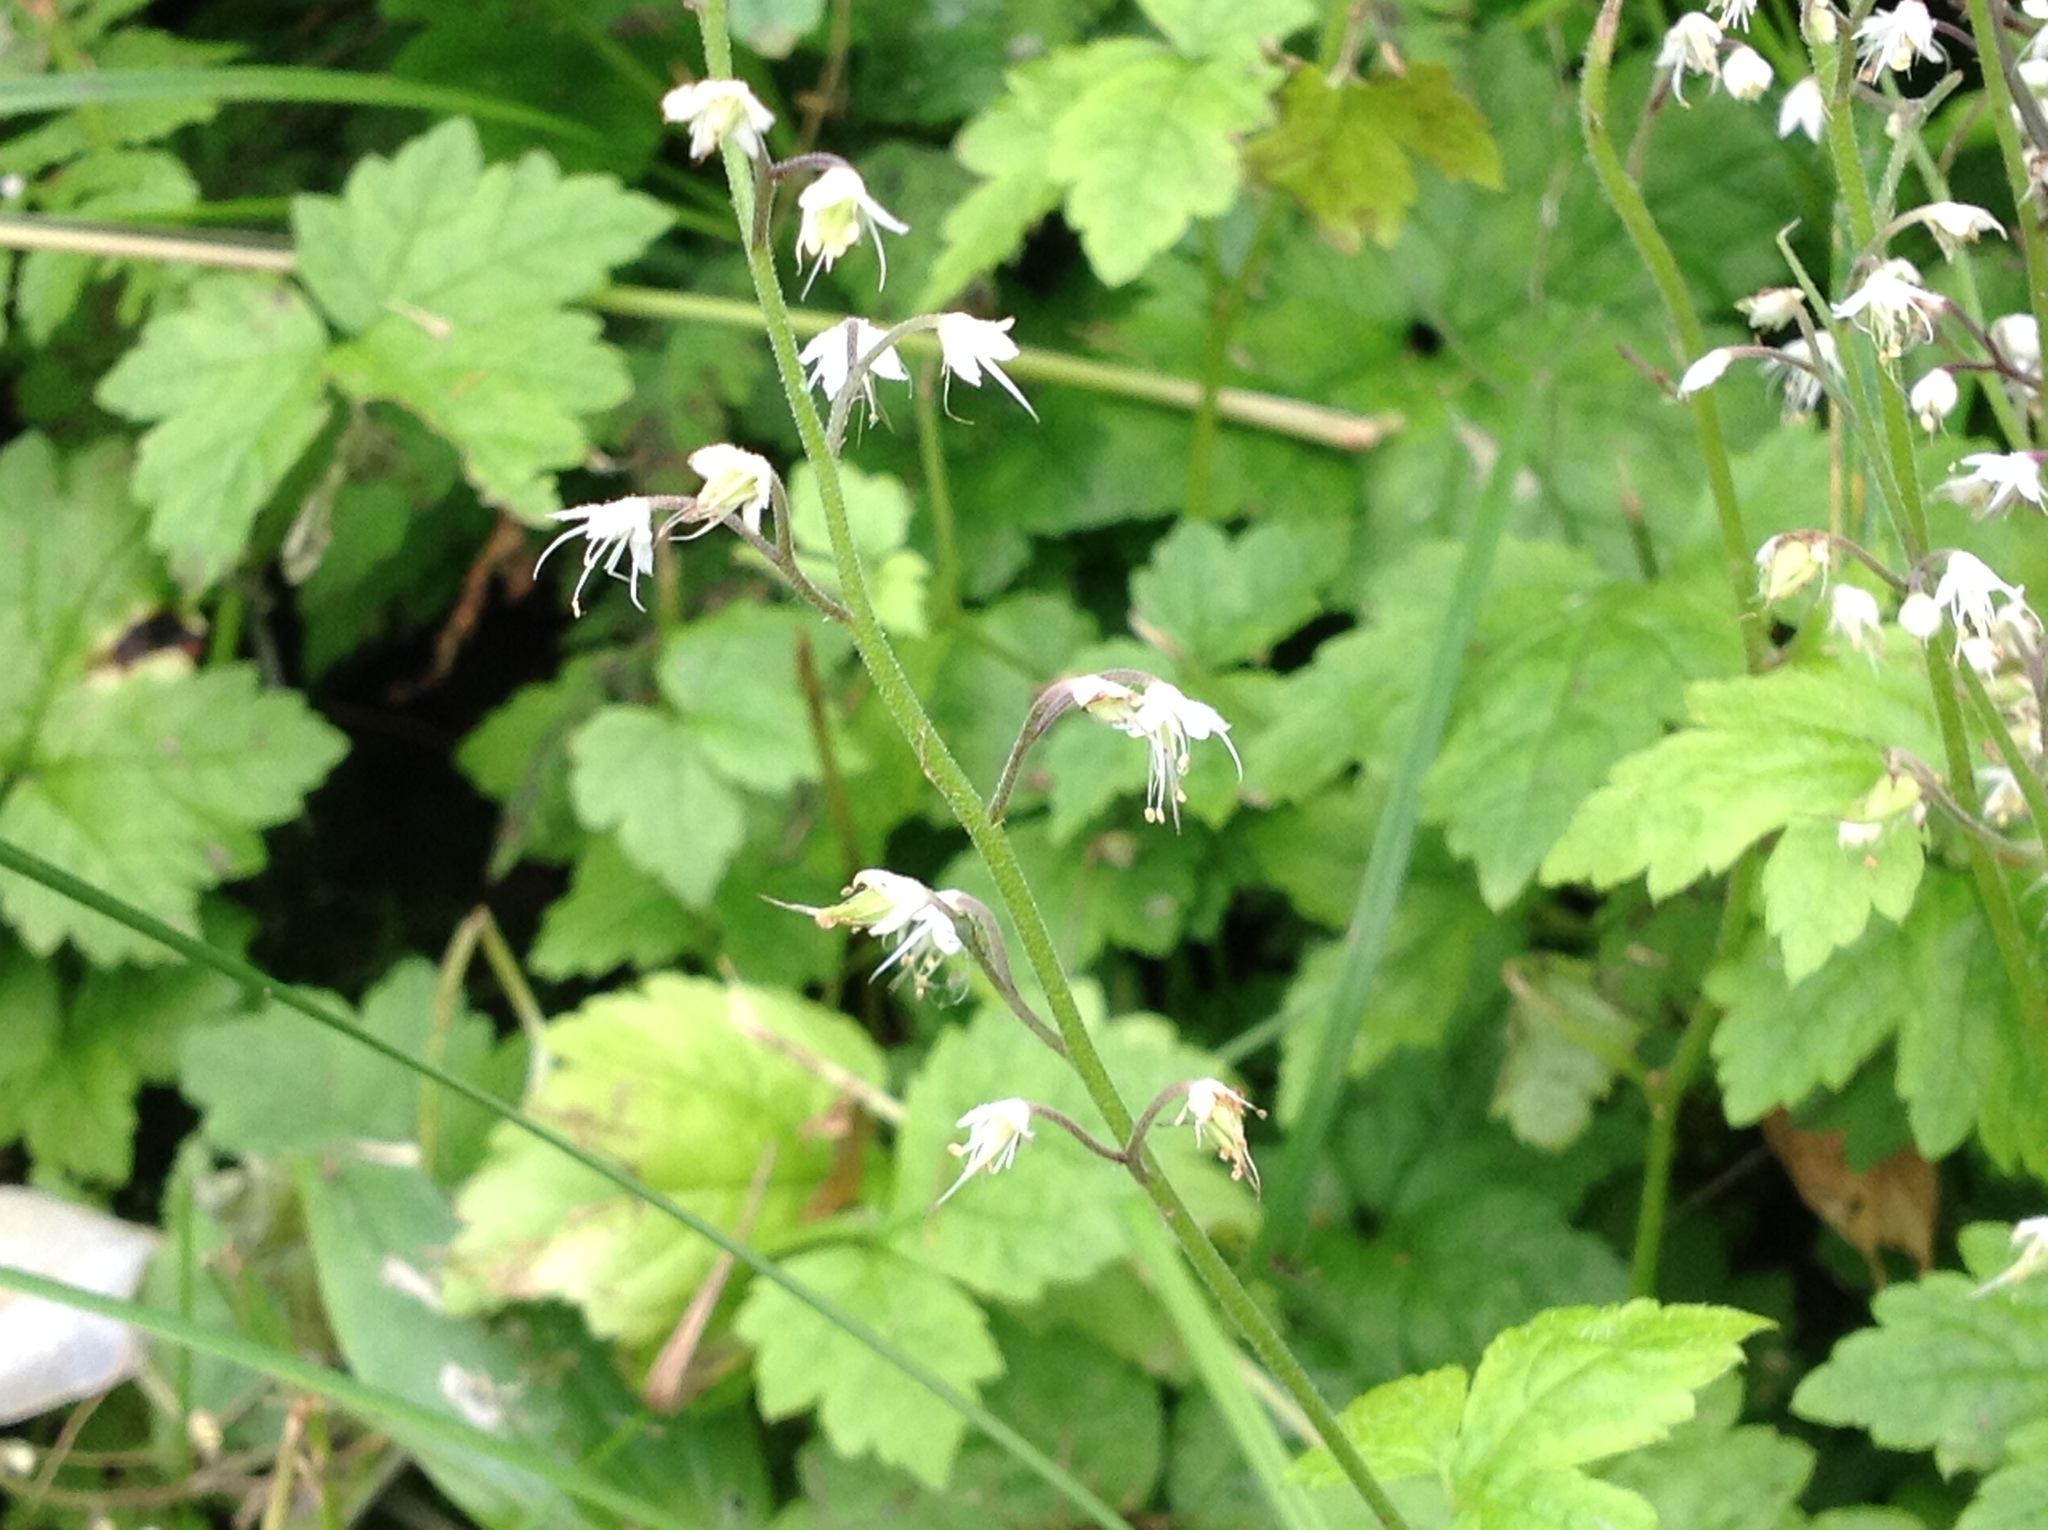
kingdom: Plantae
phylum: Tracheophyta
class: Magnoliopsida
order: Saxifragales
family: Saxifragaceae
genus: Tiarella
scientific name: Tiarella trifoliata
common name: Sugar-scoop
